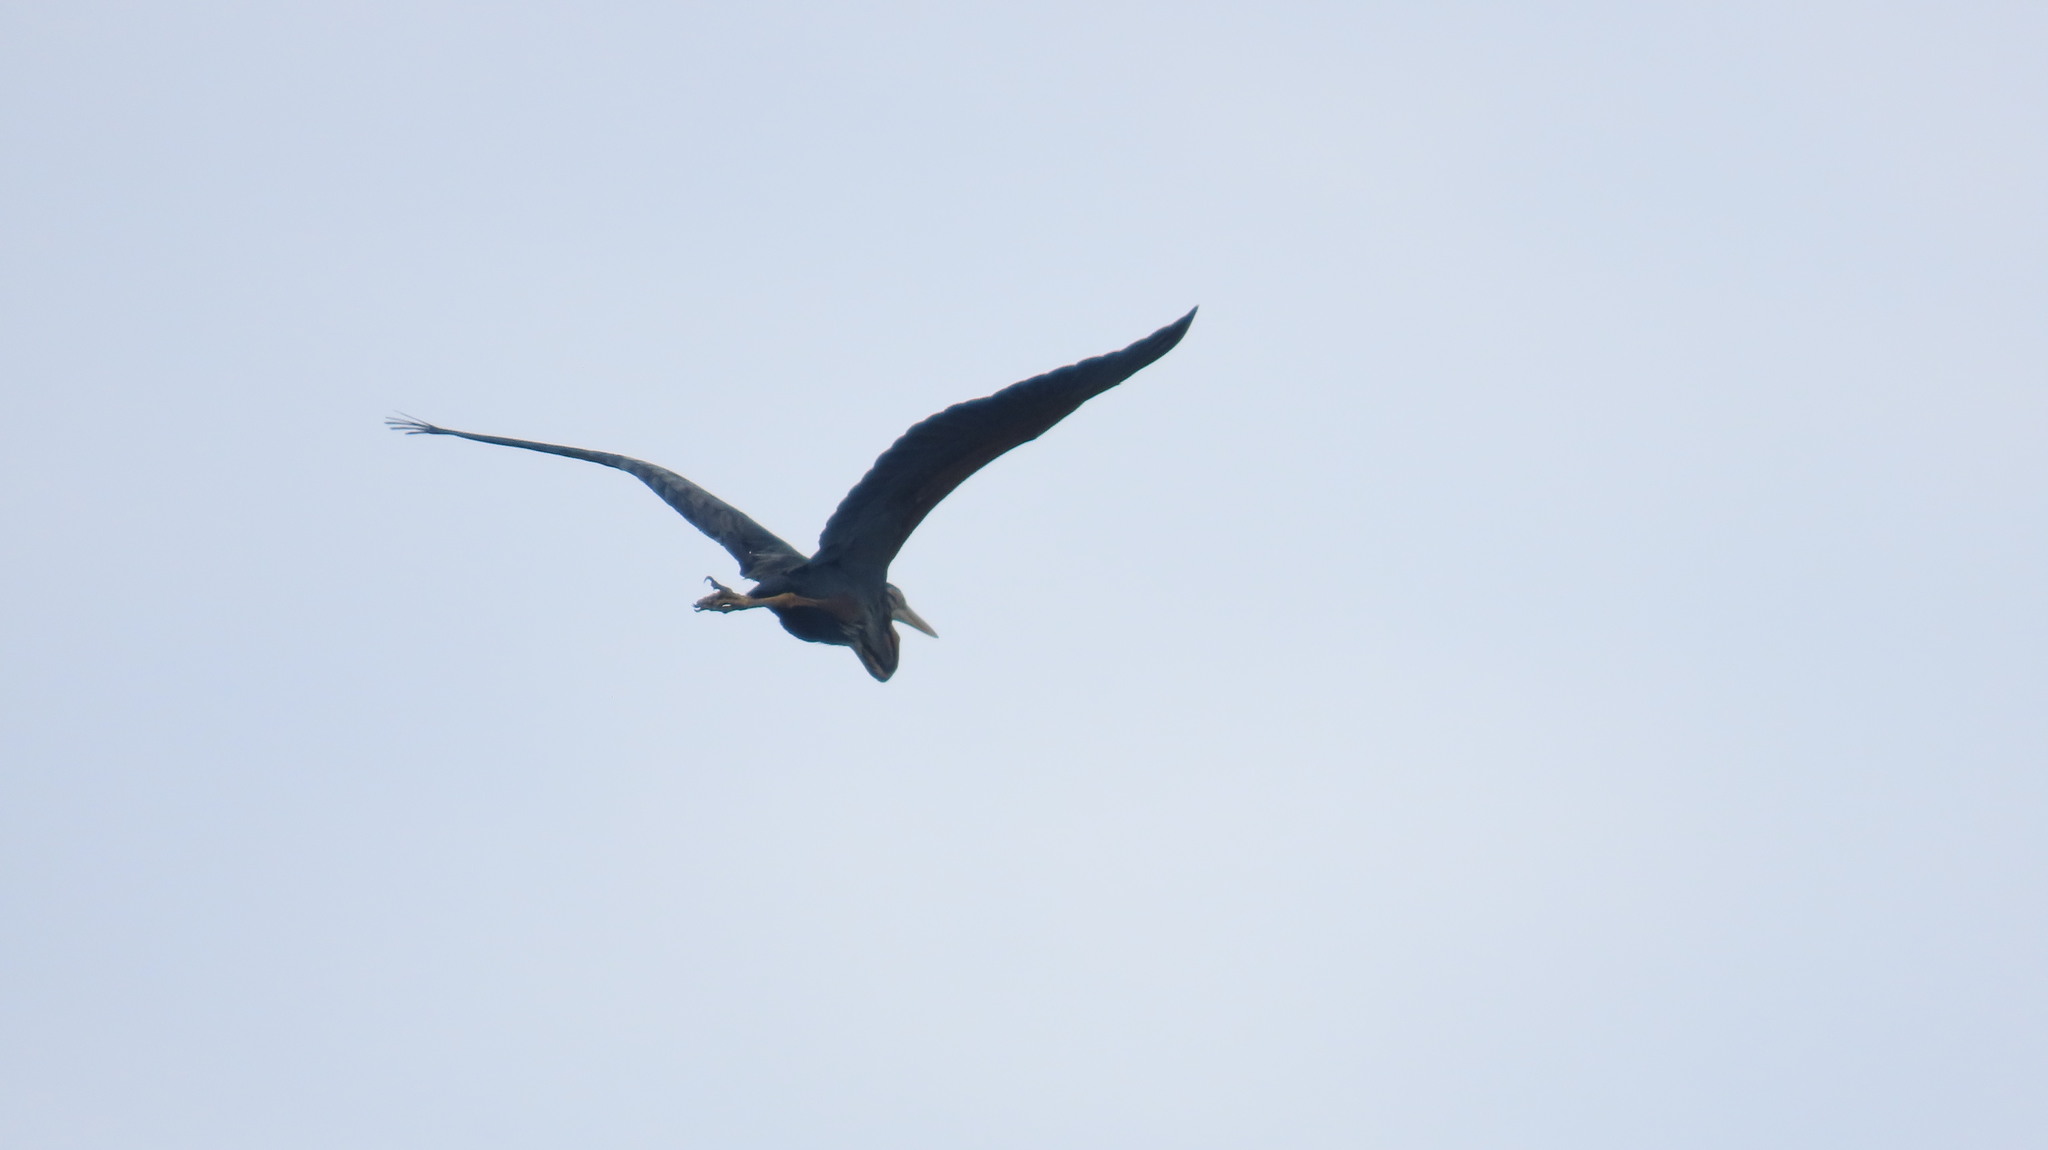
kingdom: Animalia
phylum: Chordata
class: Aves
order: Pelecaniformes
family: Ardeidae
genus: Ardea
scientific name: Ardea purpurea
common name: Purple heron
